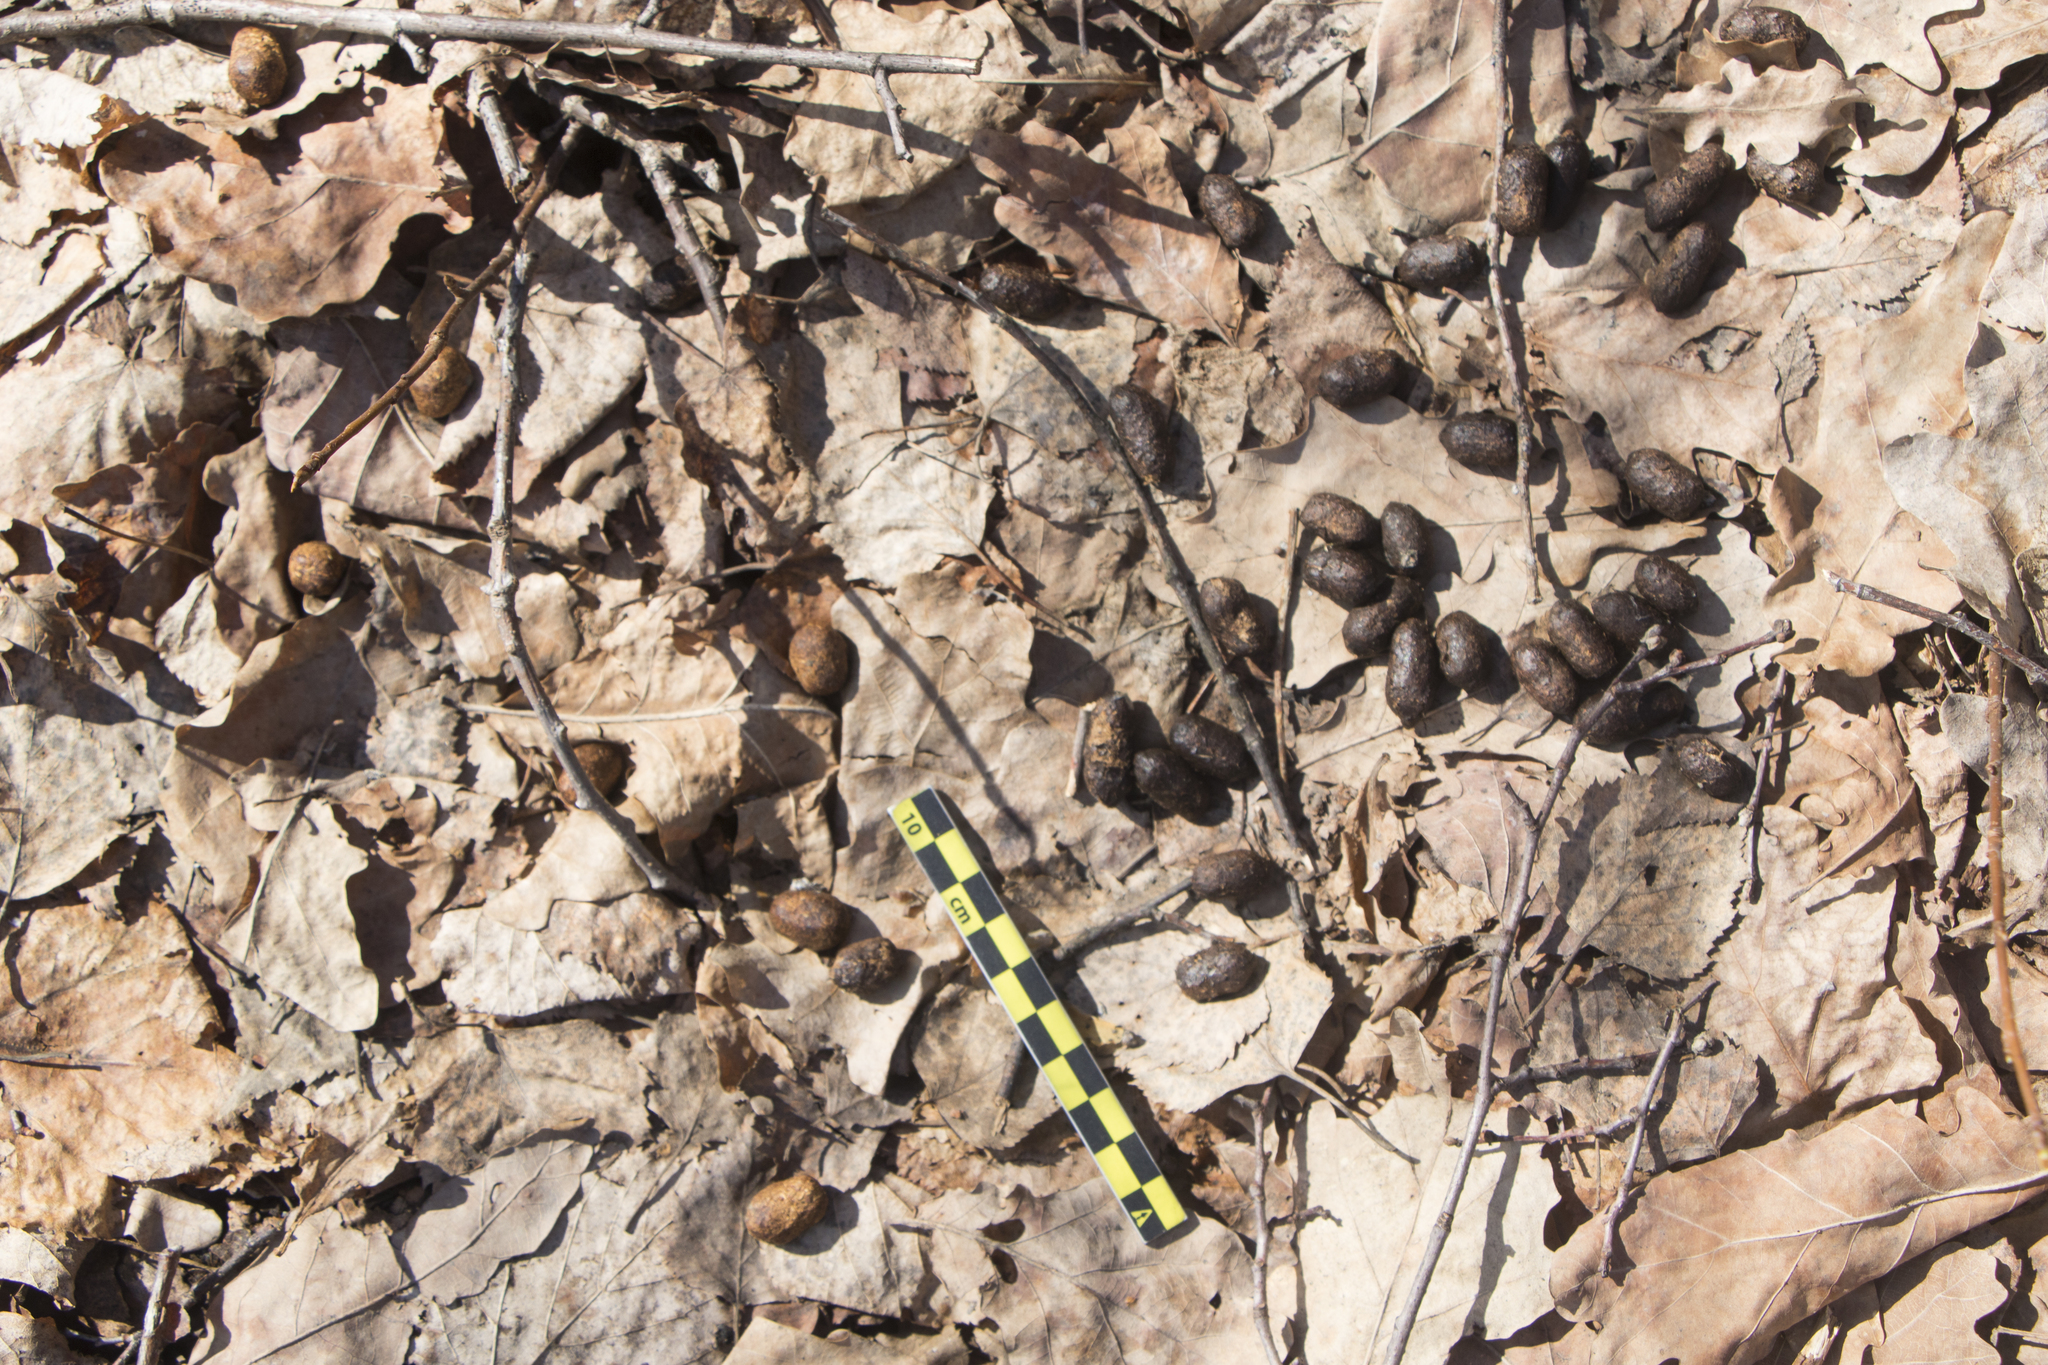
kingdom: Animalia
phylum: Chordata
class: Mammalia
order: Artiodactyla
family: Cervidae
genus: Capreolus
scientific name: Capreolus pygargus
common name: Siberian roe
